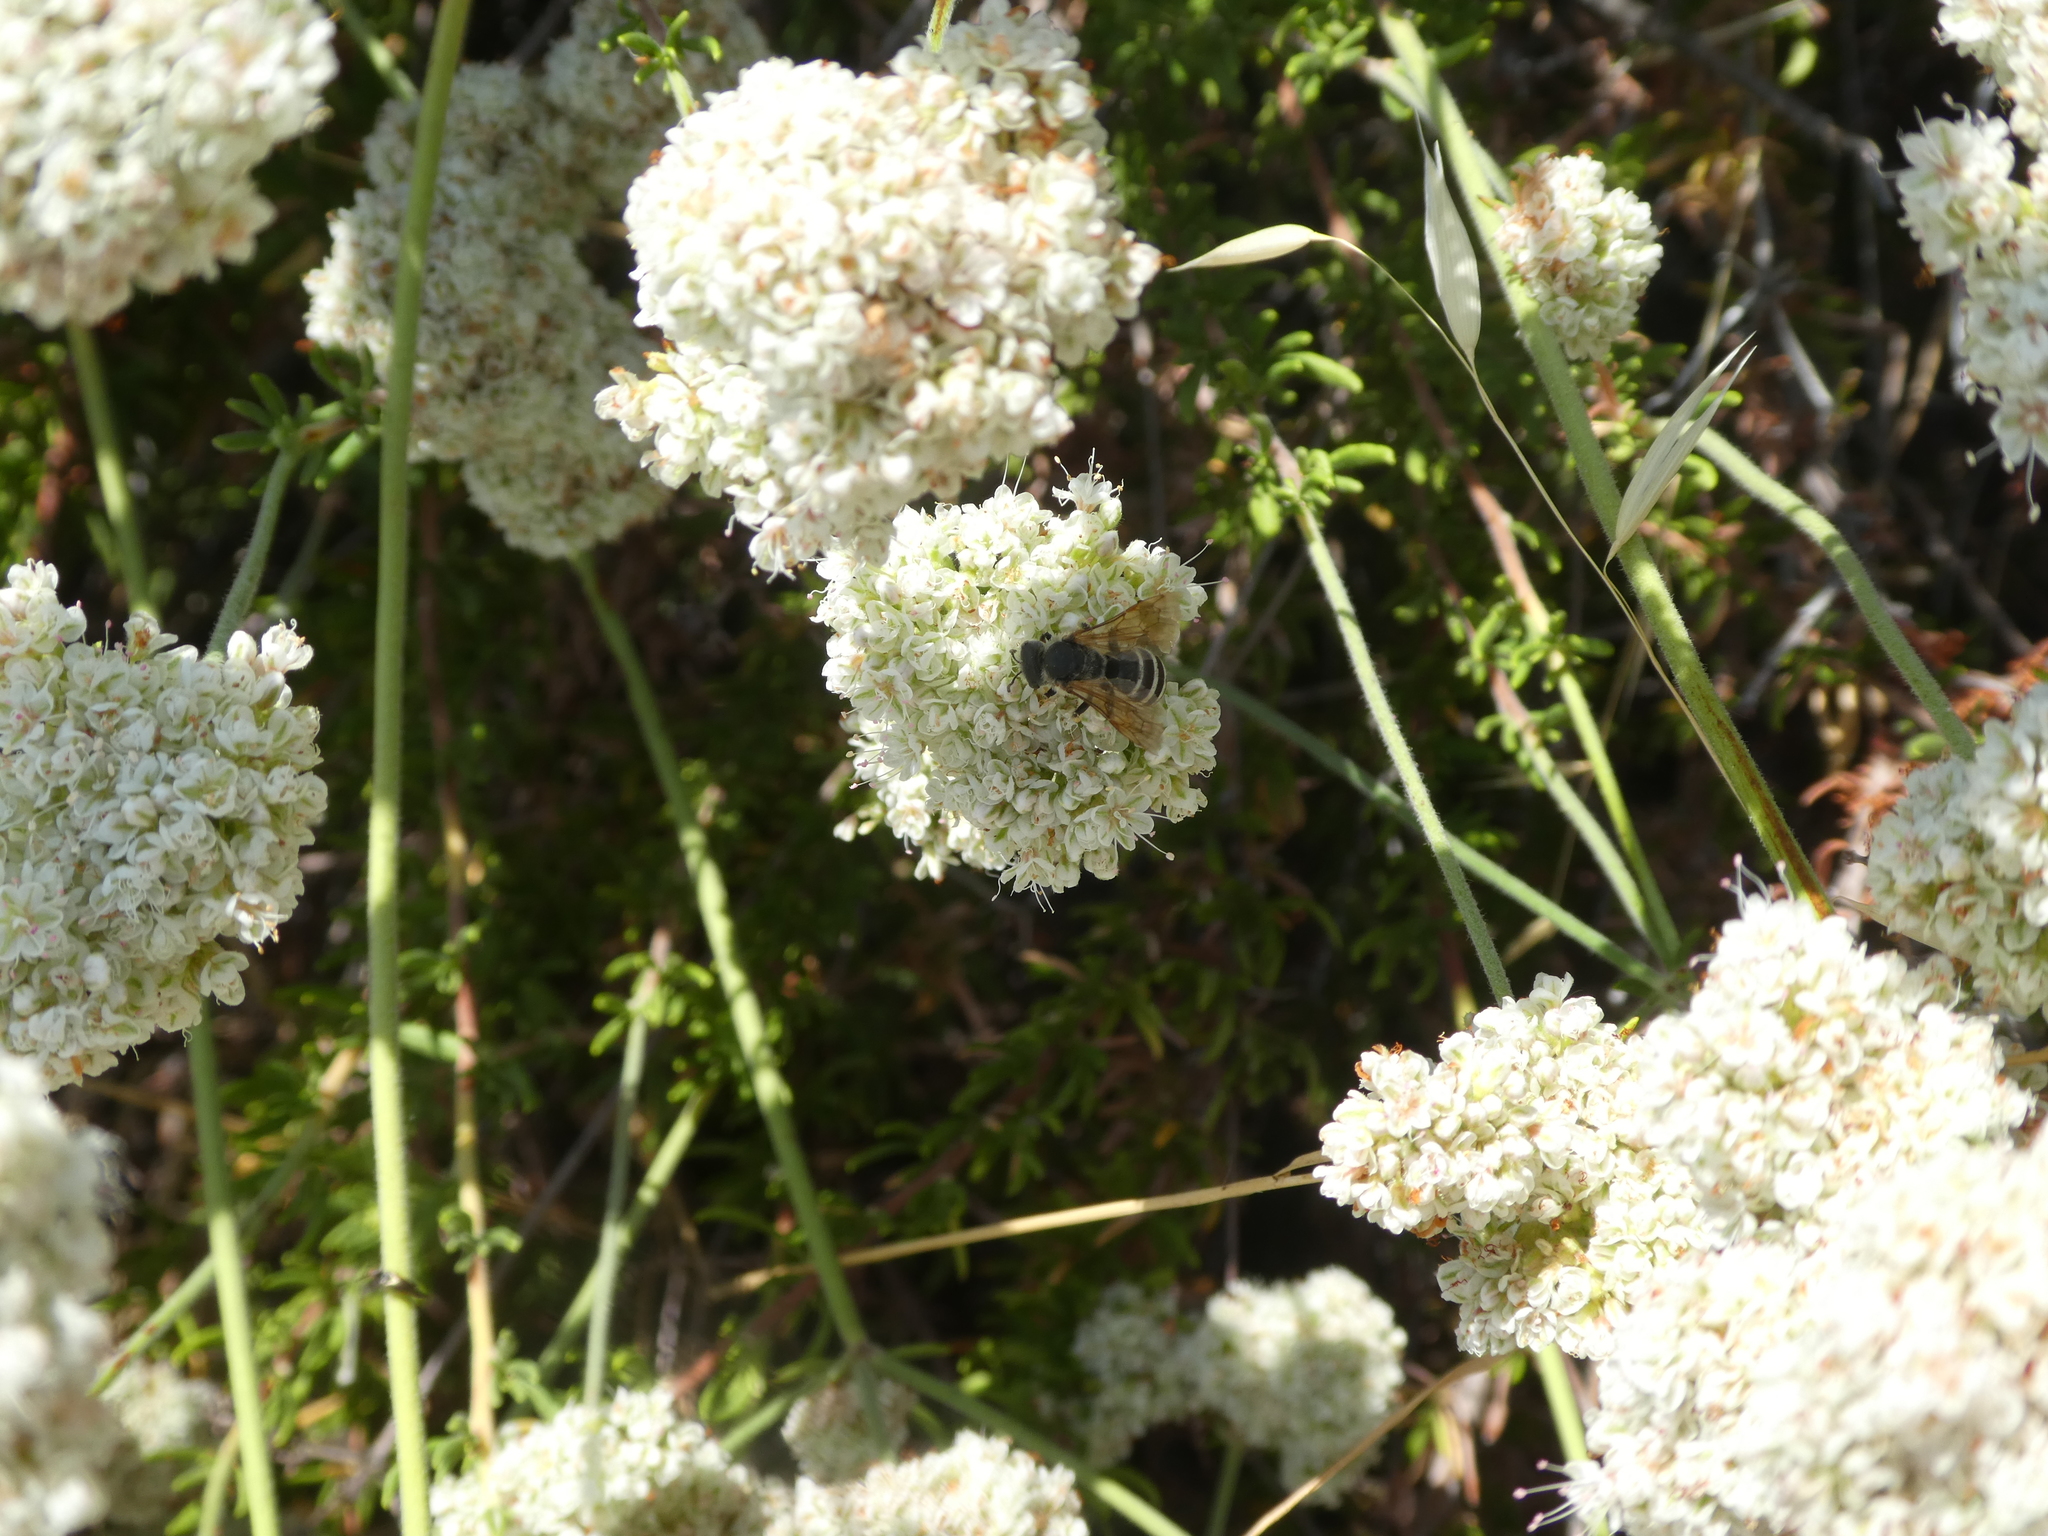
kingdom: Animalia
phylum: Arthropoda
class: Insecta
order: Hymenoptera
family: Halictidae
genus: Halictus
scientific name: Halictus farinosus
